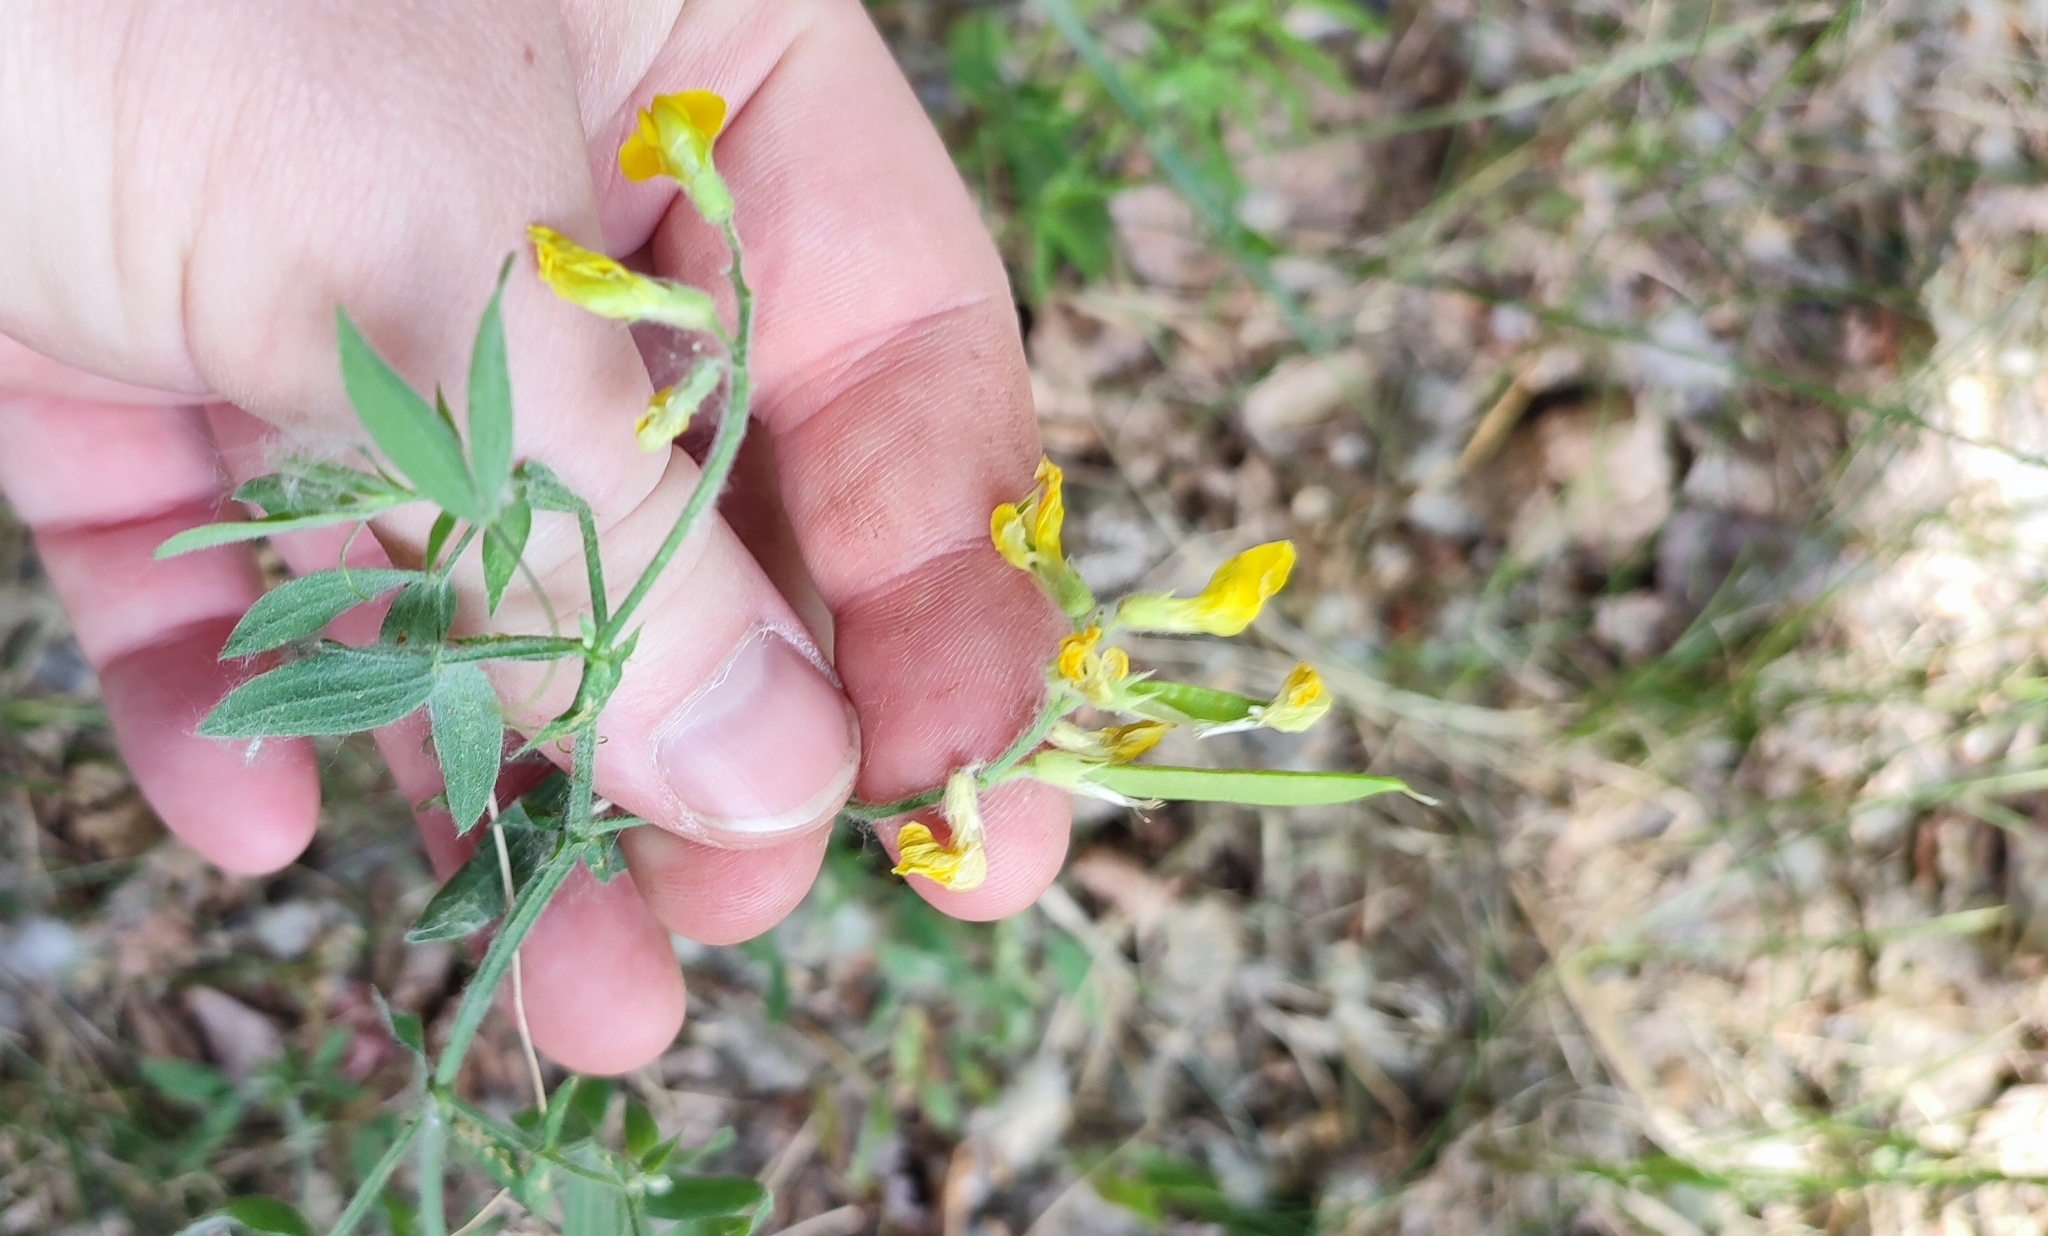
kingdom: Plantae
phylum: Tracheophyta
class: Magnoliopsida
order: Fabales
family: Fabaceae
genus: Lathyrus
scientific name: Lathyrus pratensis
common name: Meadow vetchling
